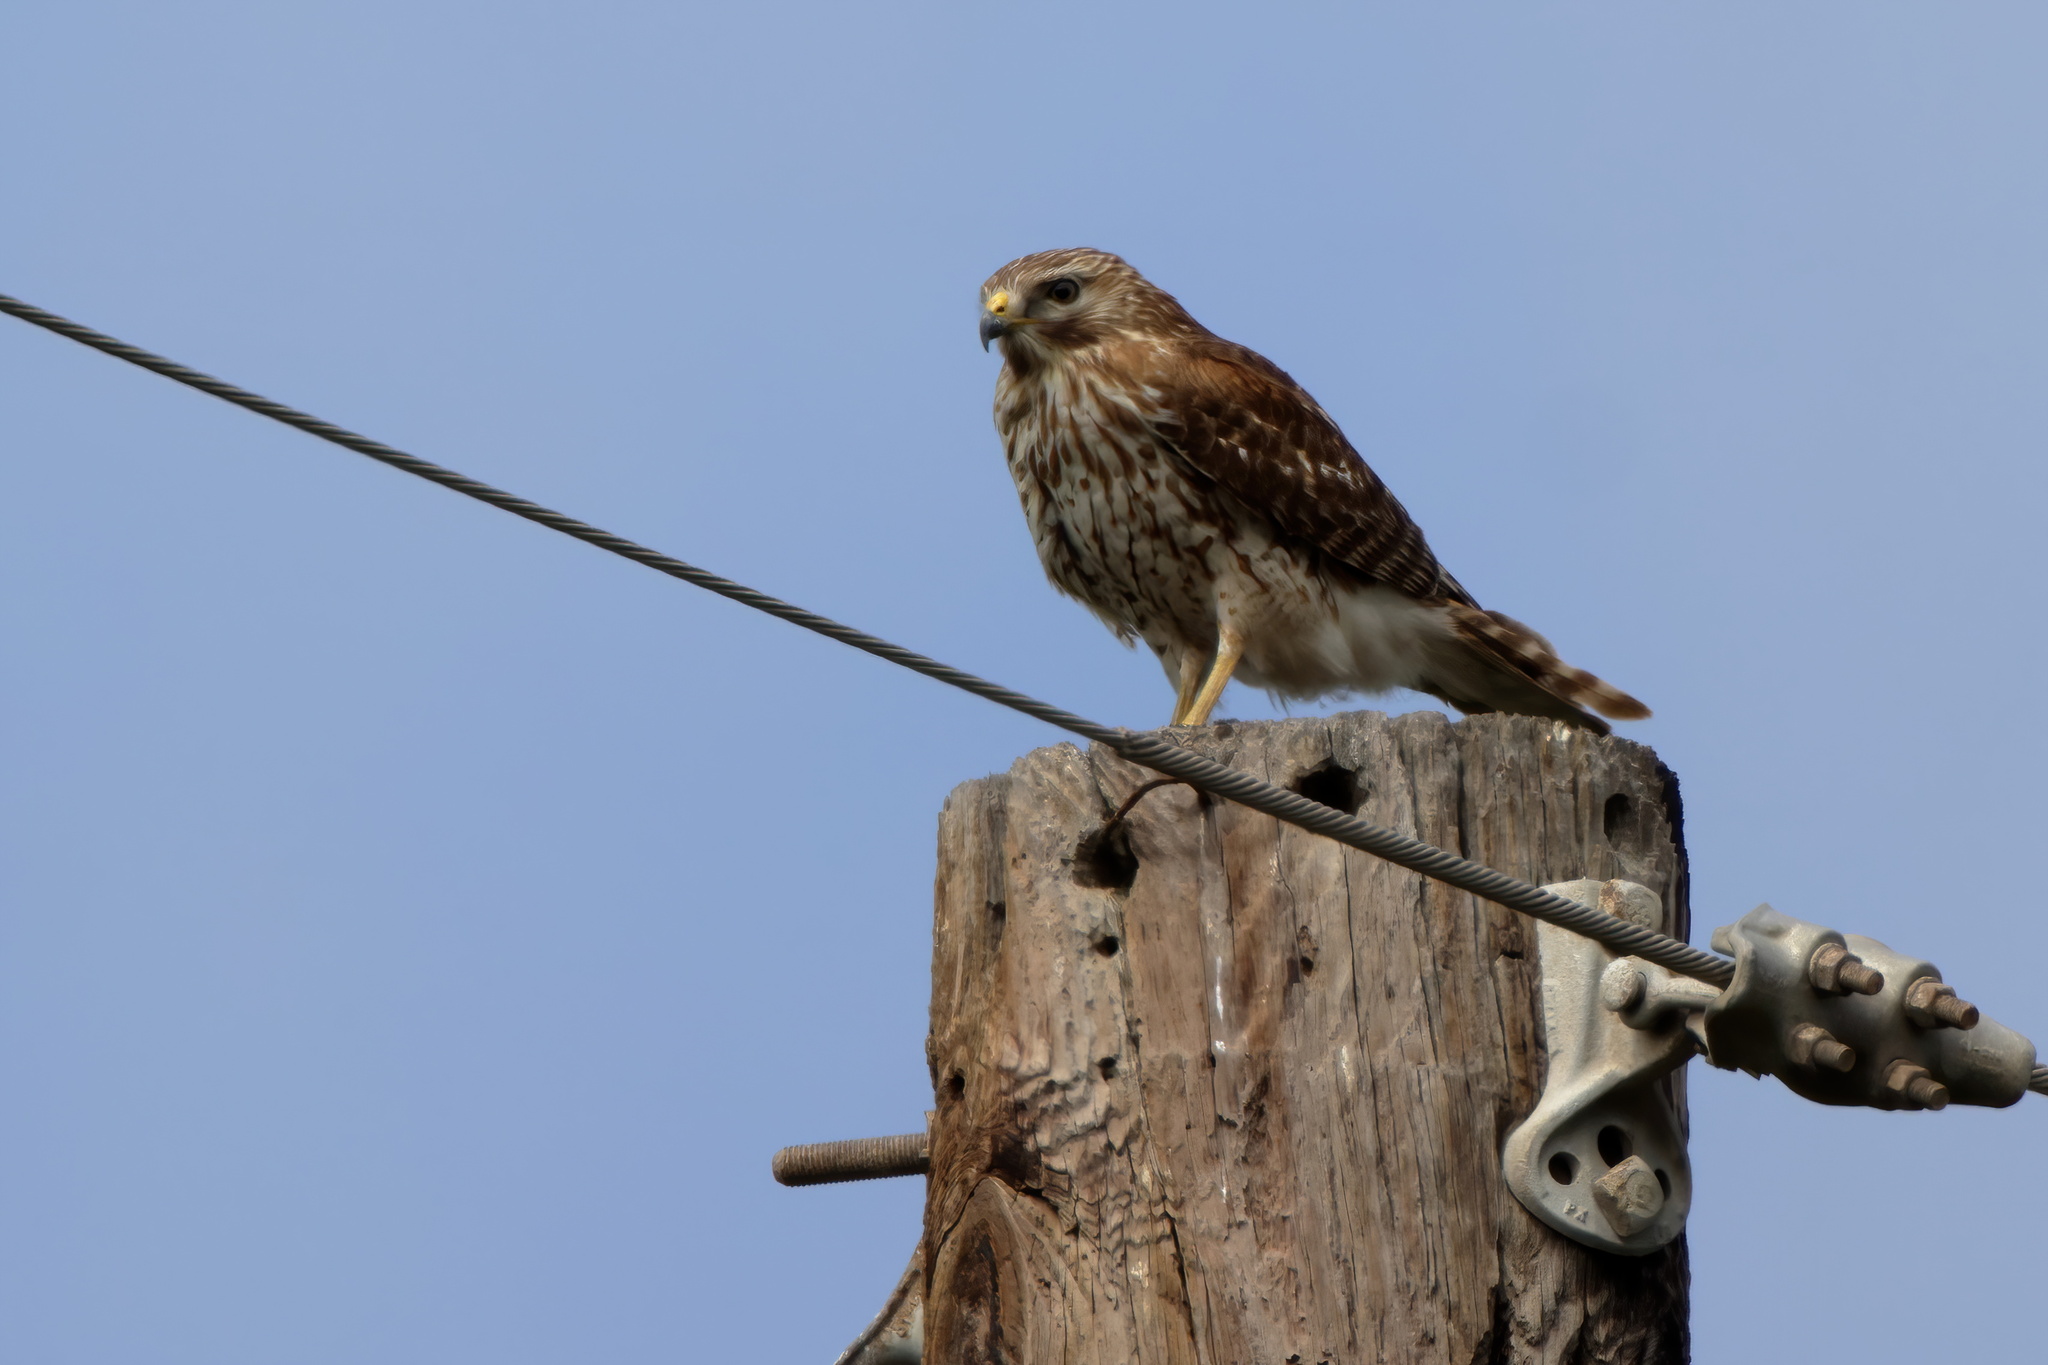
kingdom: Animalia
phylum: Chordata
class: Aves
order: Accipitriformes
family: Accipitridae
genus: Buteo
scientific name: Buteo lineatus
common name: Red-shouldered hawk
